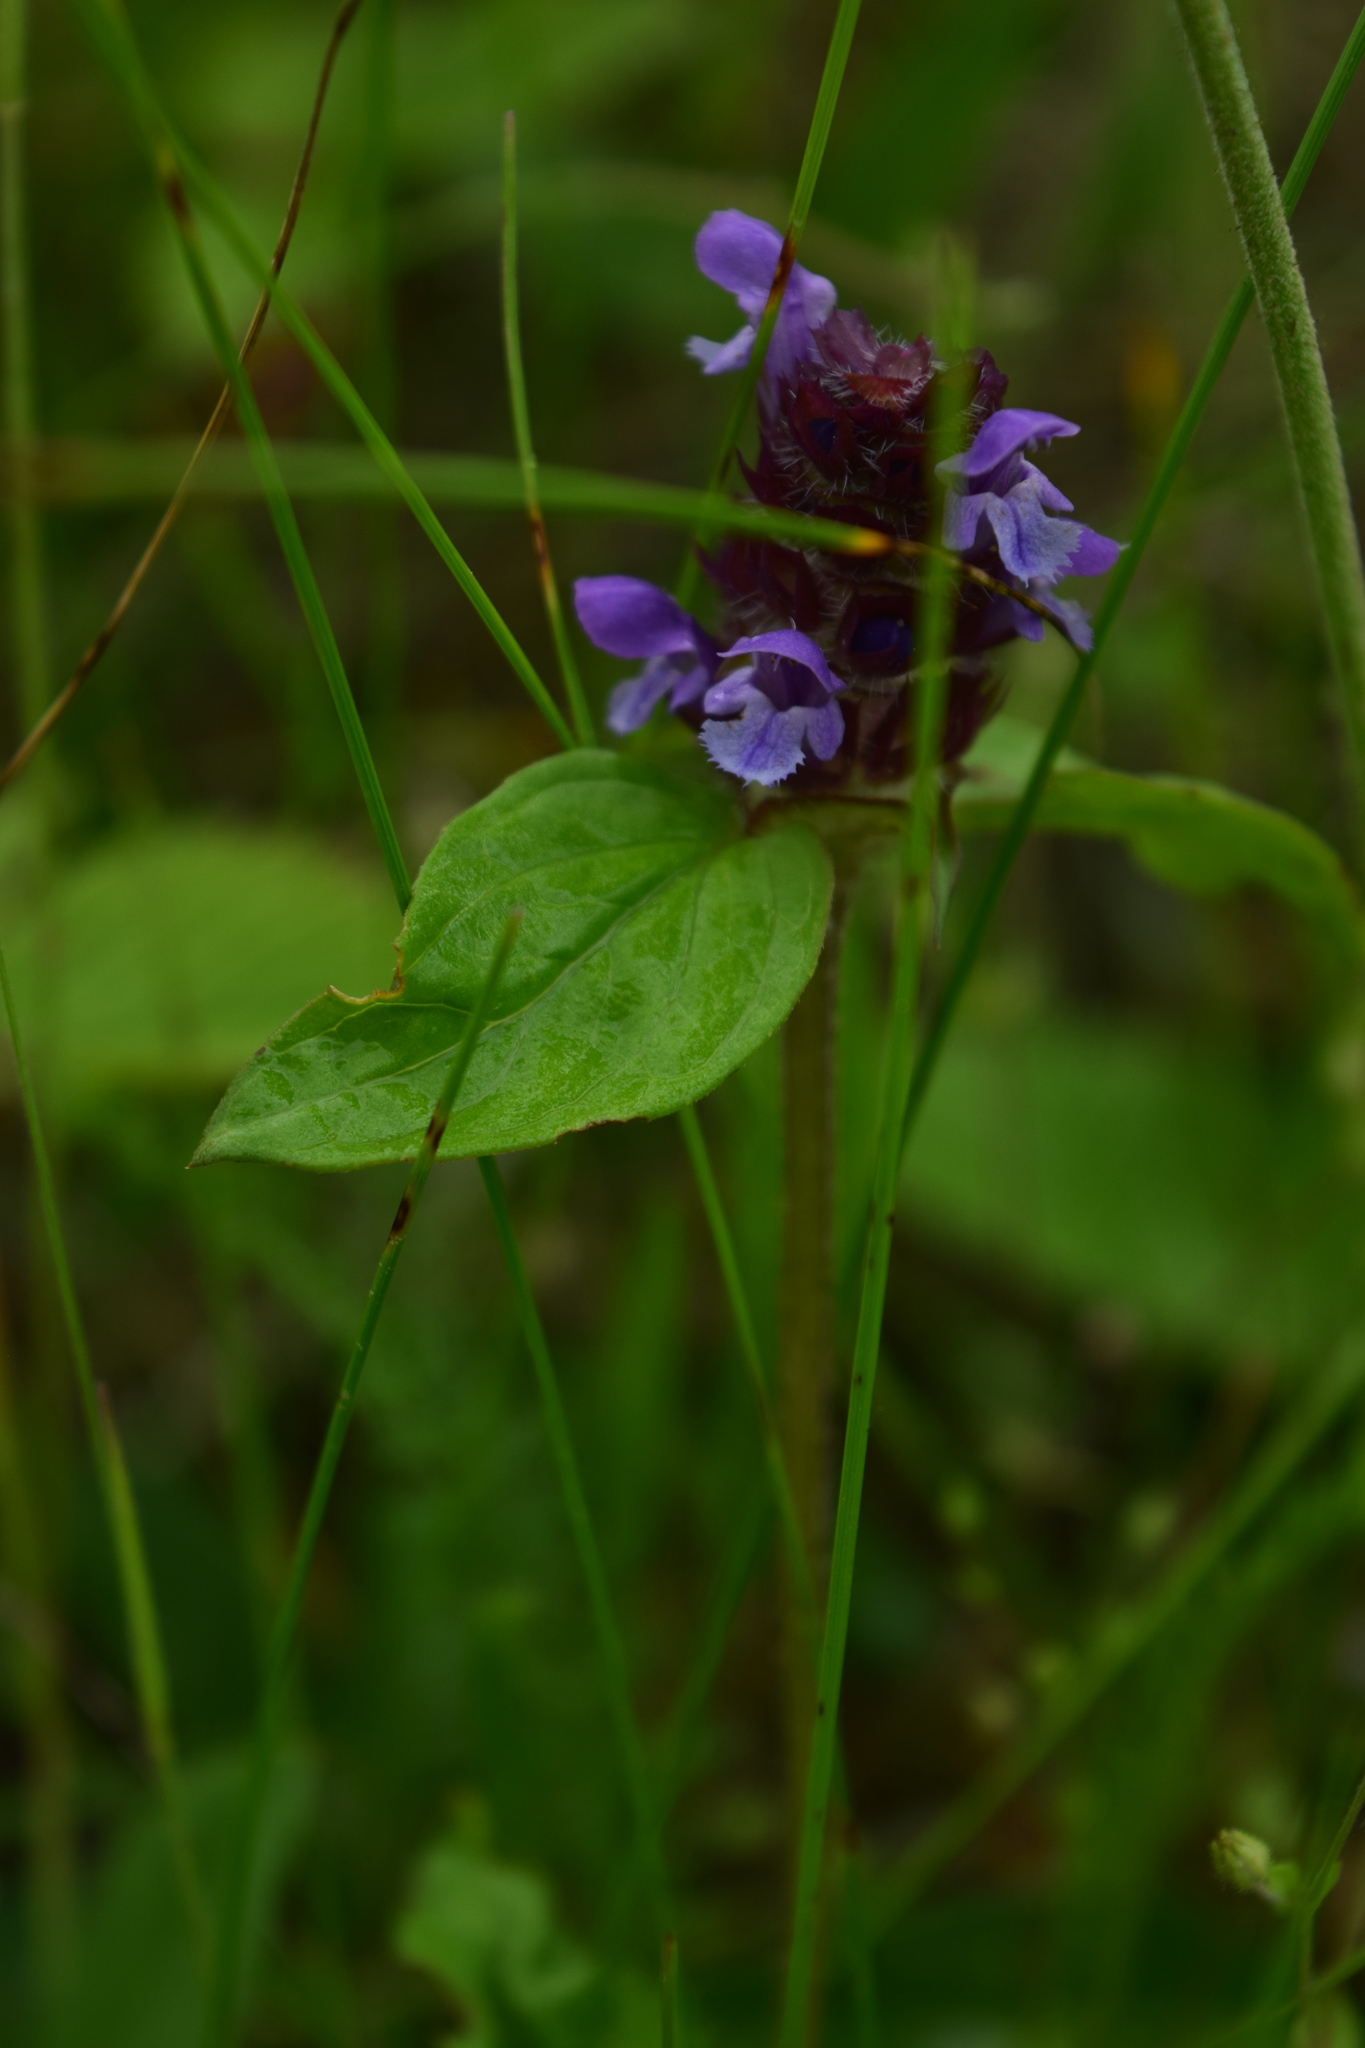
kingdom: Plantae
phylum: Tracheophyta
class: Magnoliopsida
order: Lamiales
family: Lamiaceae
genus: Prunella
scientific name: Prunella vulgaris
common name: Heal-all
